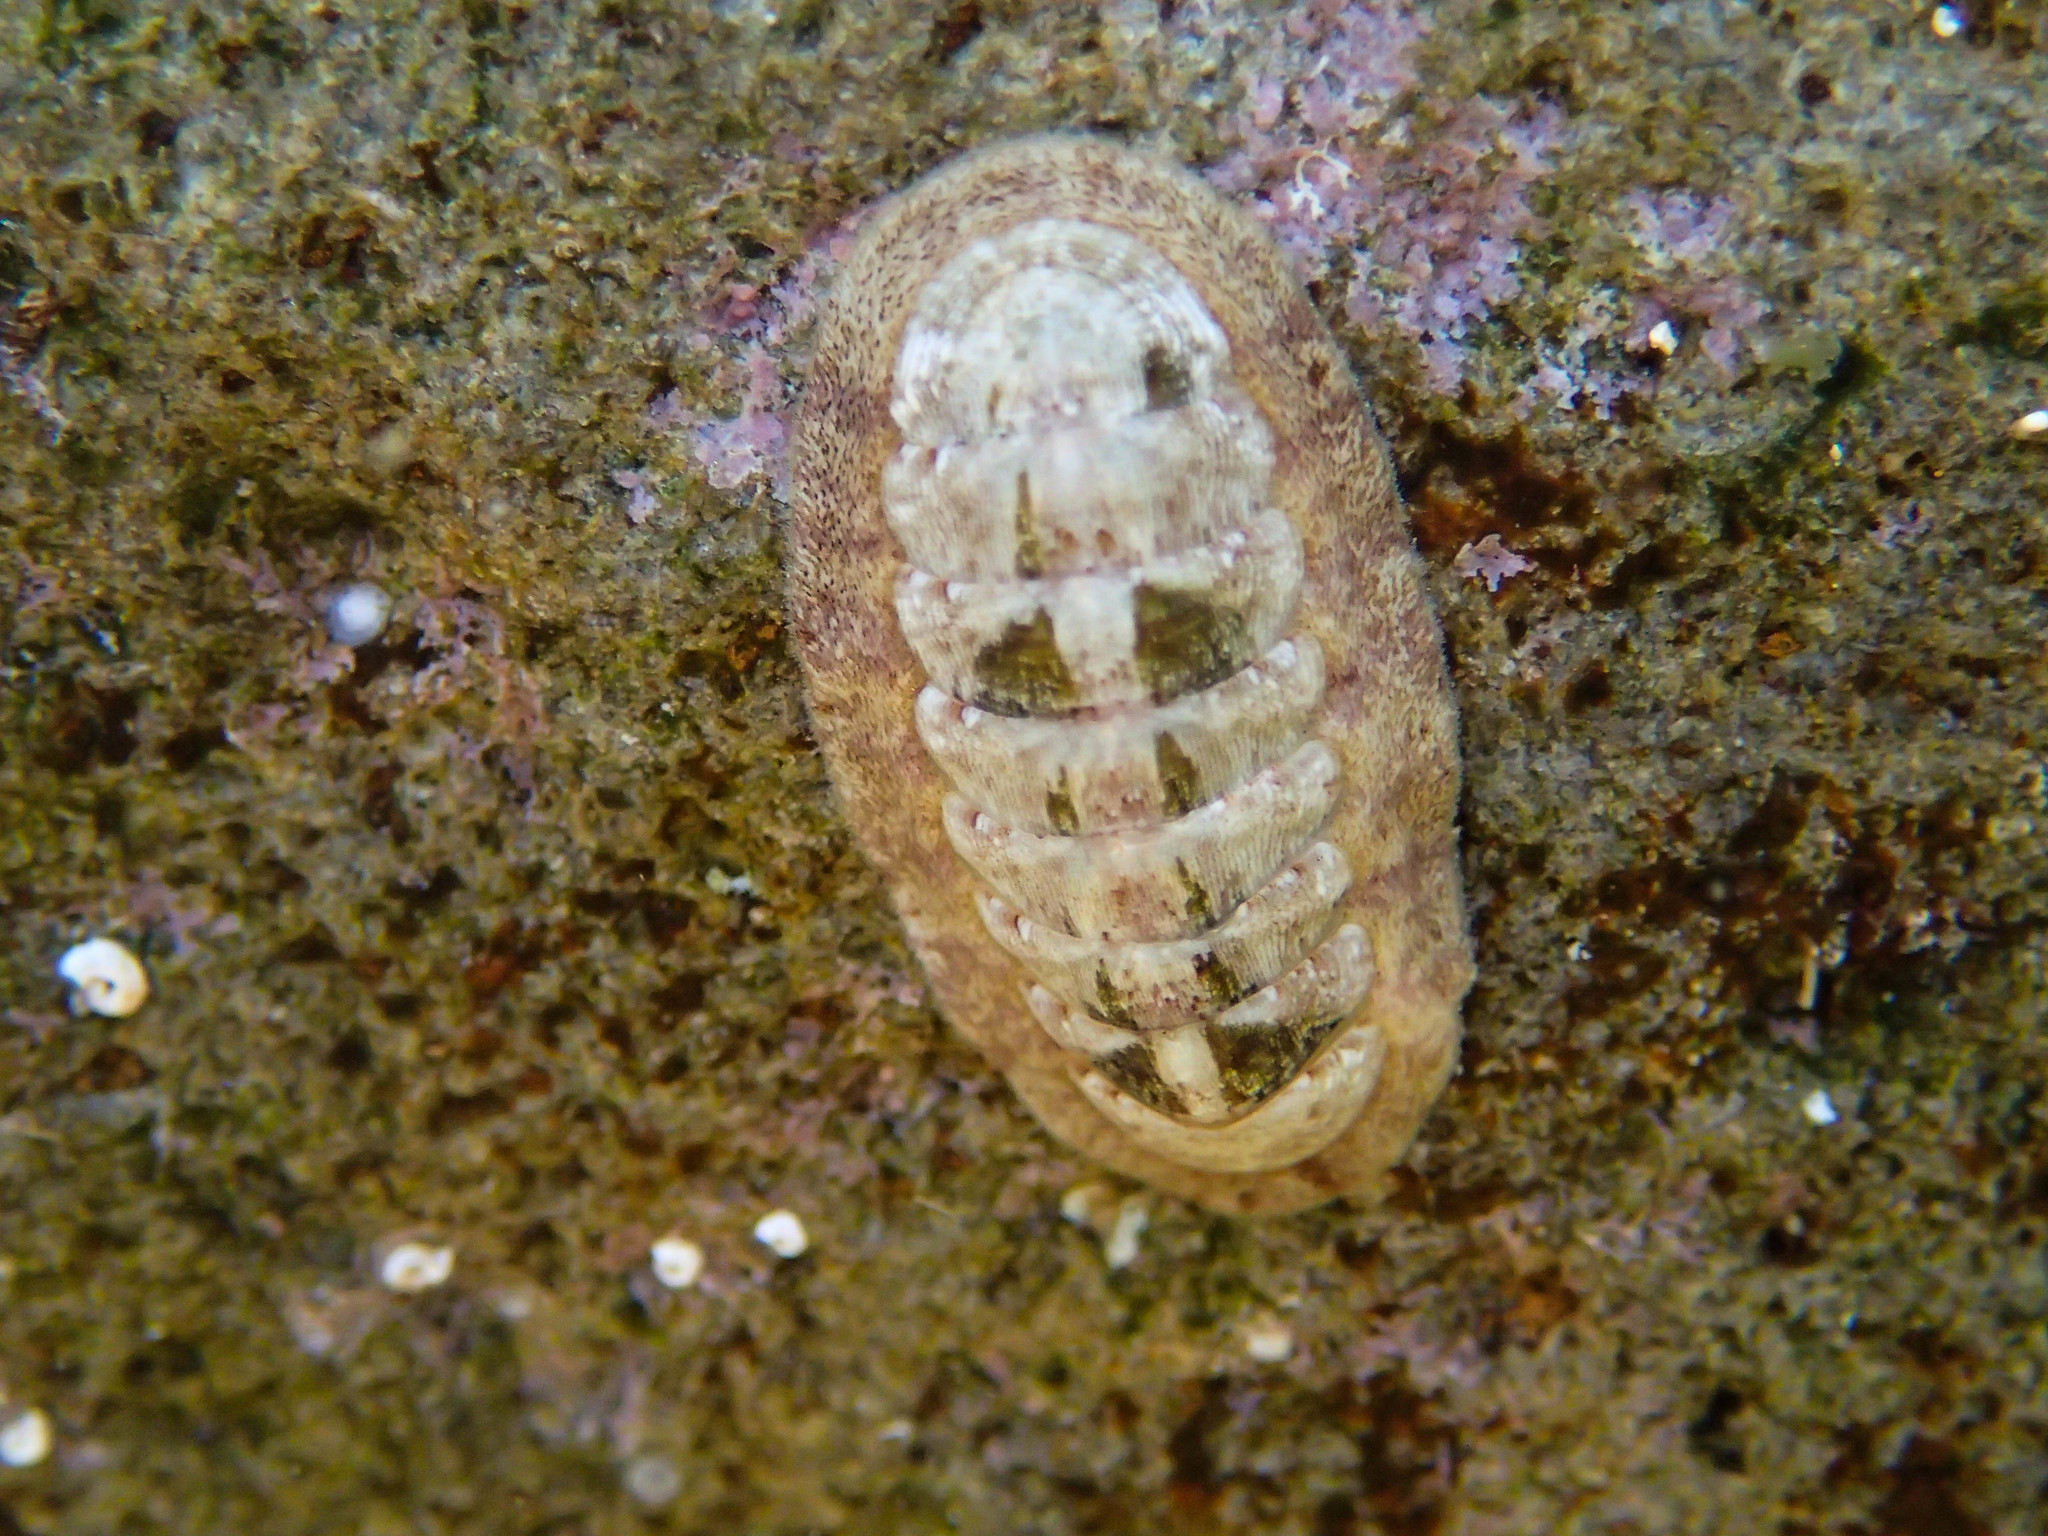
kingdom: Animalia
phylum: Mollusca
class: Polyplacophora
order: Chitonida
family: Ischnochitonidae
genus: Ischnochiton
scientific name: Ischnochiton rissoi
